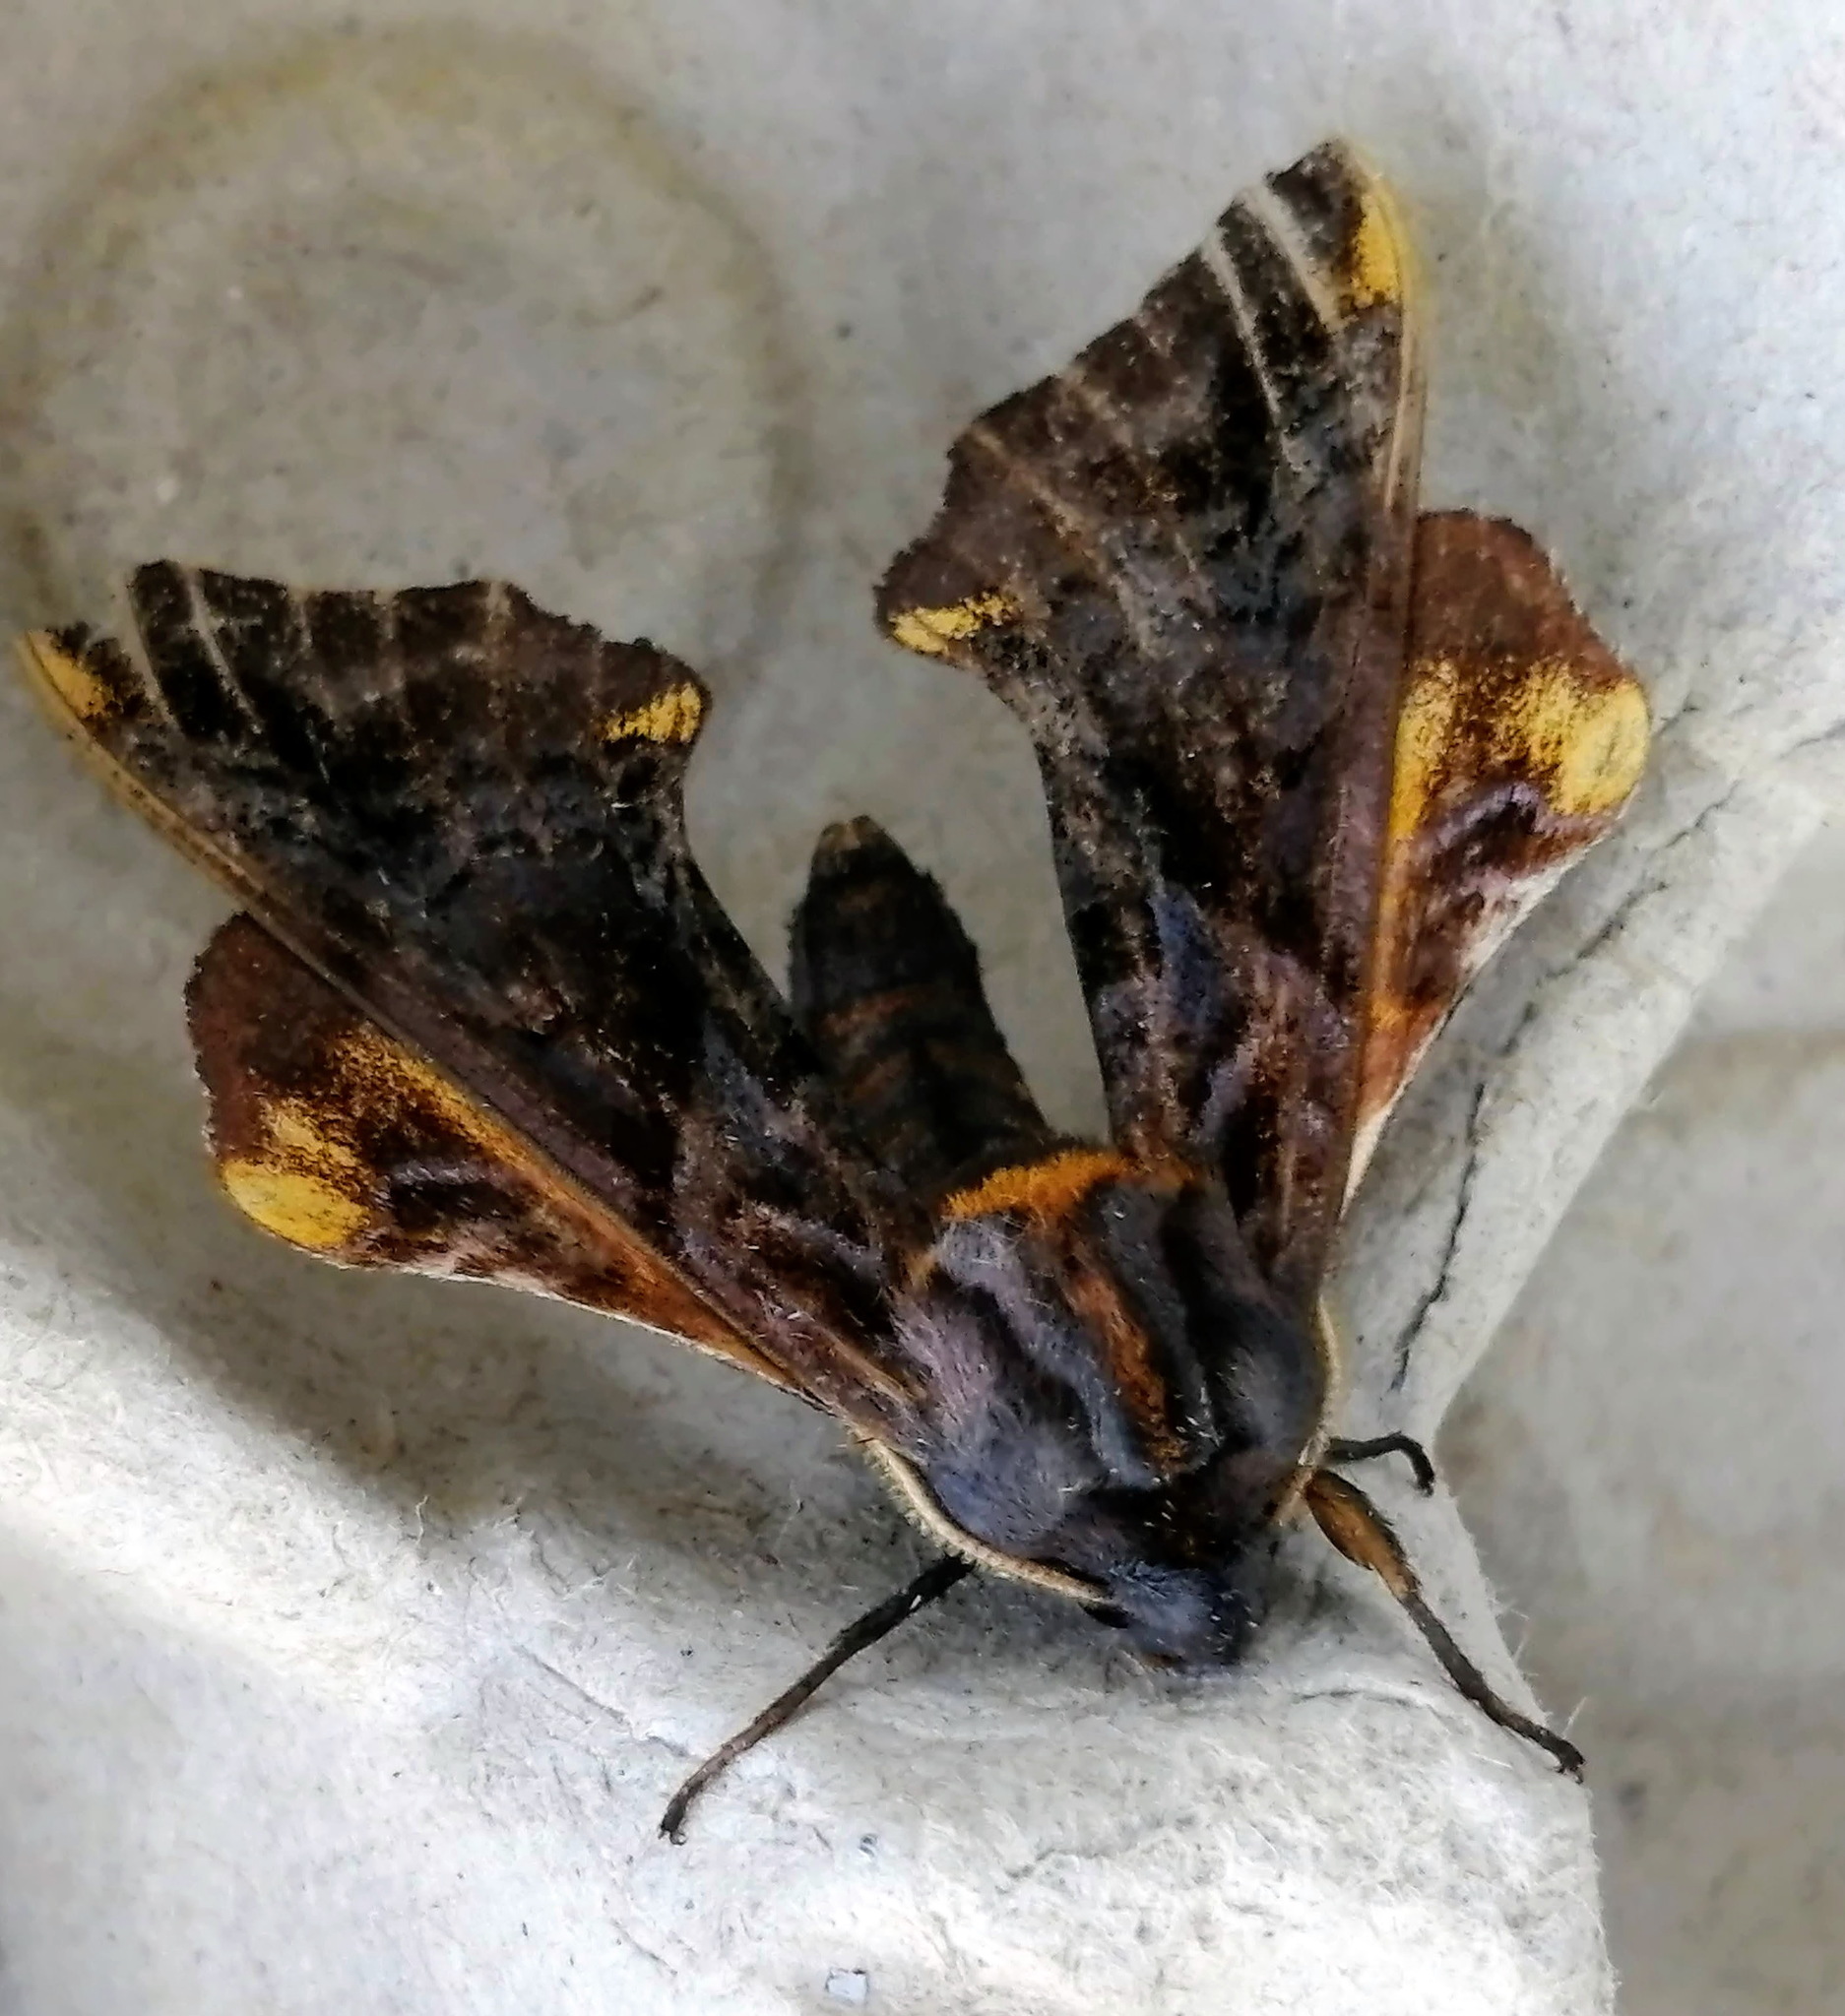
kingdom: Animalia
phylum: Arthropoda
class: Insecta
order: Lepidoptera
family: Sphingidae
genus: Paonias
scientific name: Paonias myops
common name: Small-eyed sphinx
